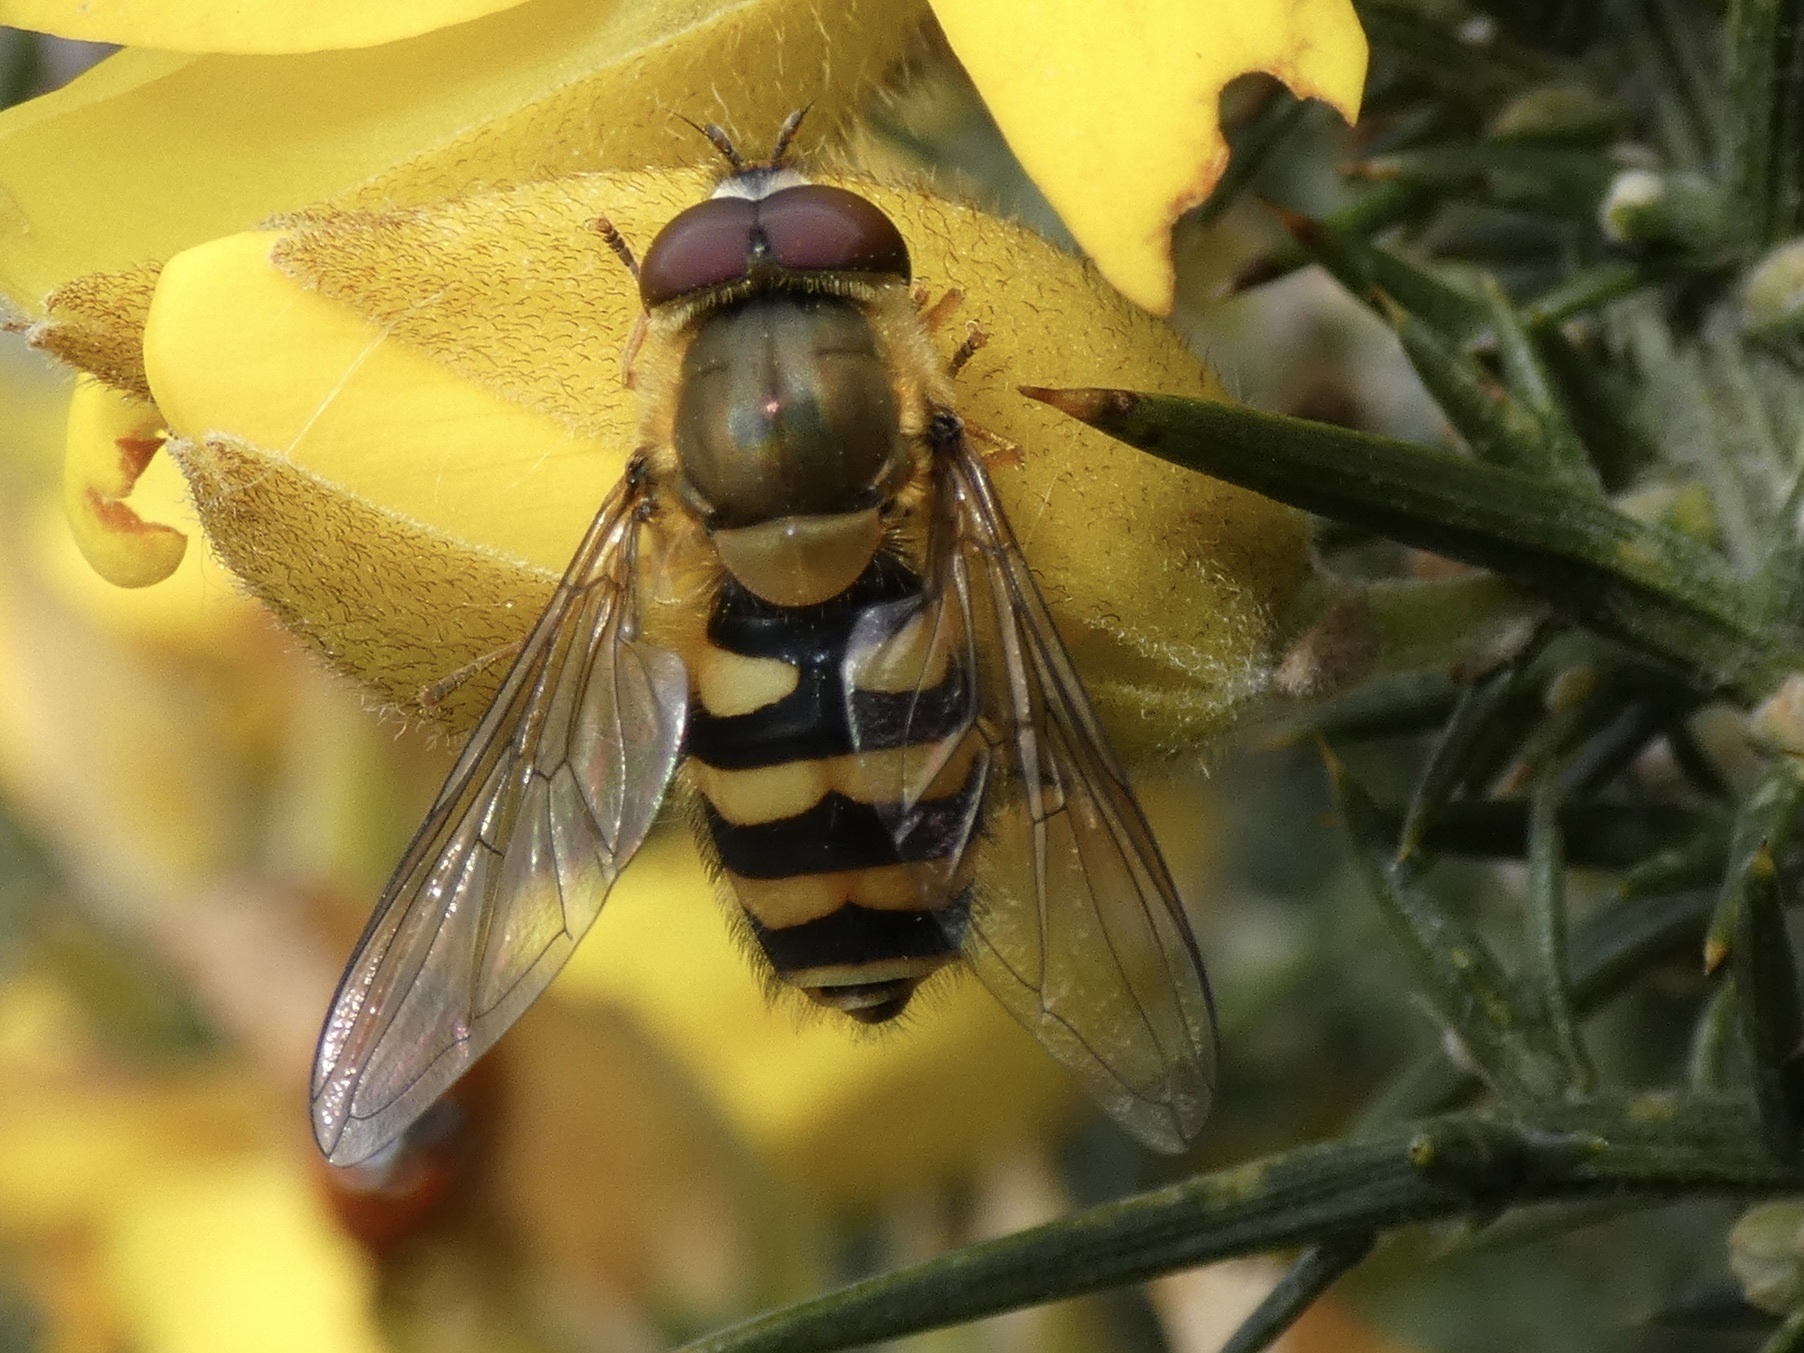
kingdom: Animalia
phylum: Arthropoda
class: Insecta
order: Diptera
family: Syrphidae
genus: Syrphus
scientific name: Syrphus
